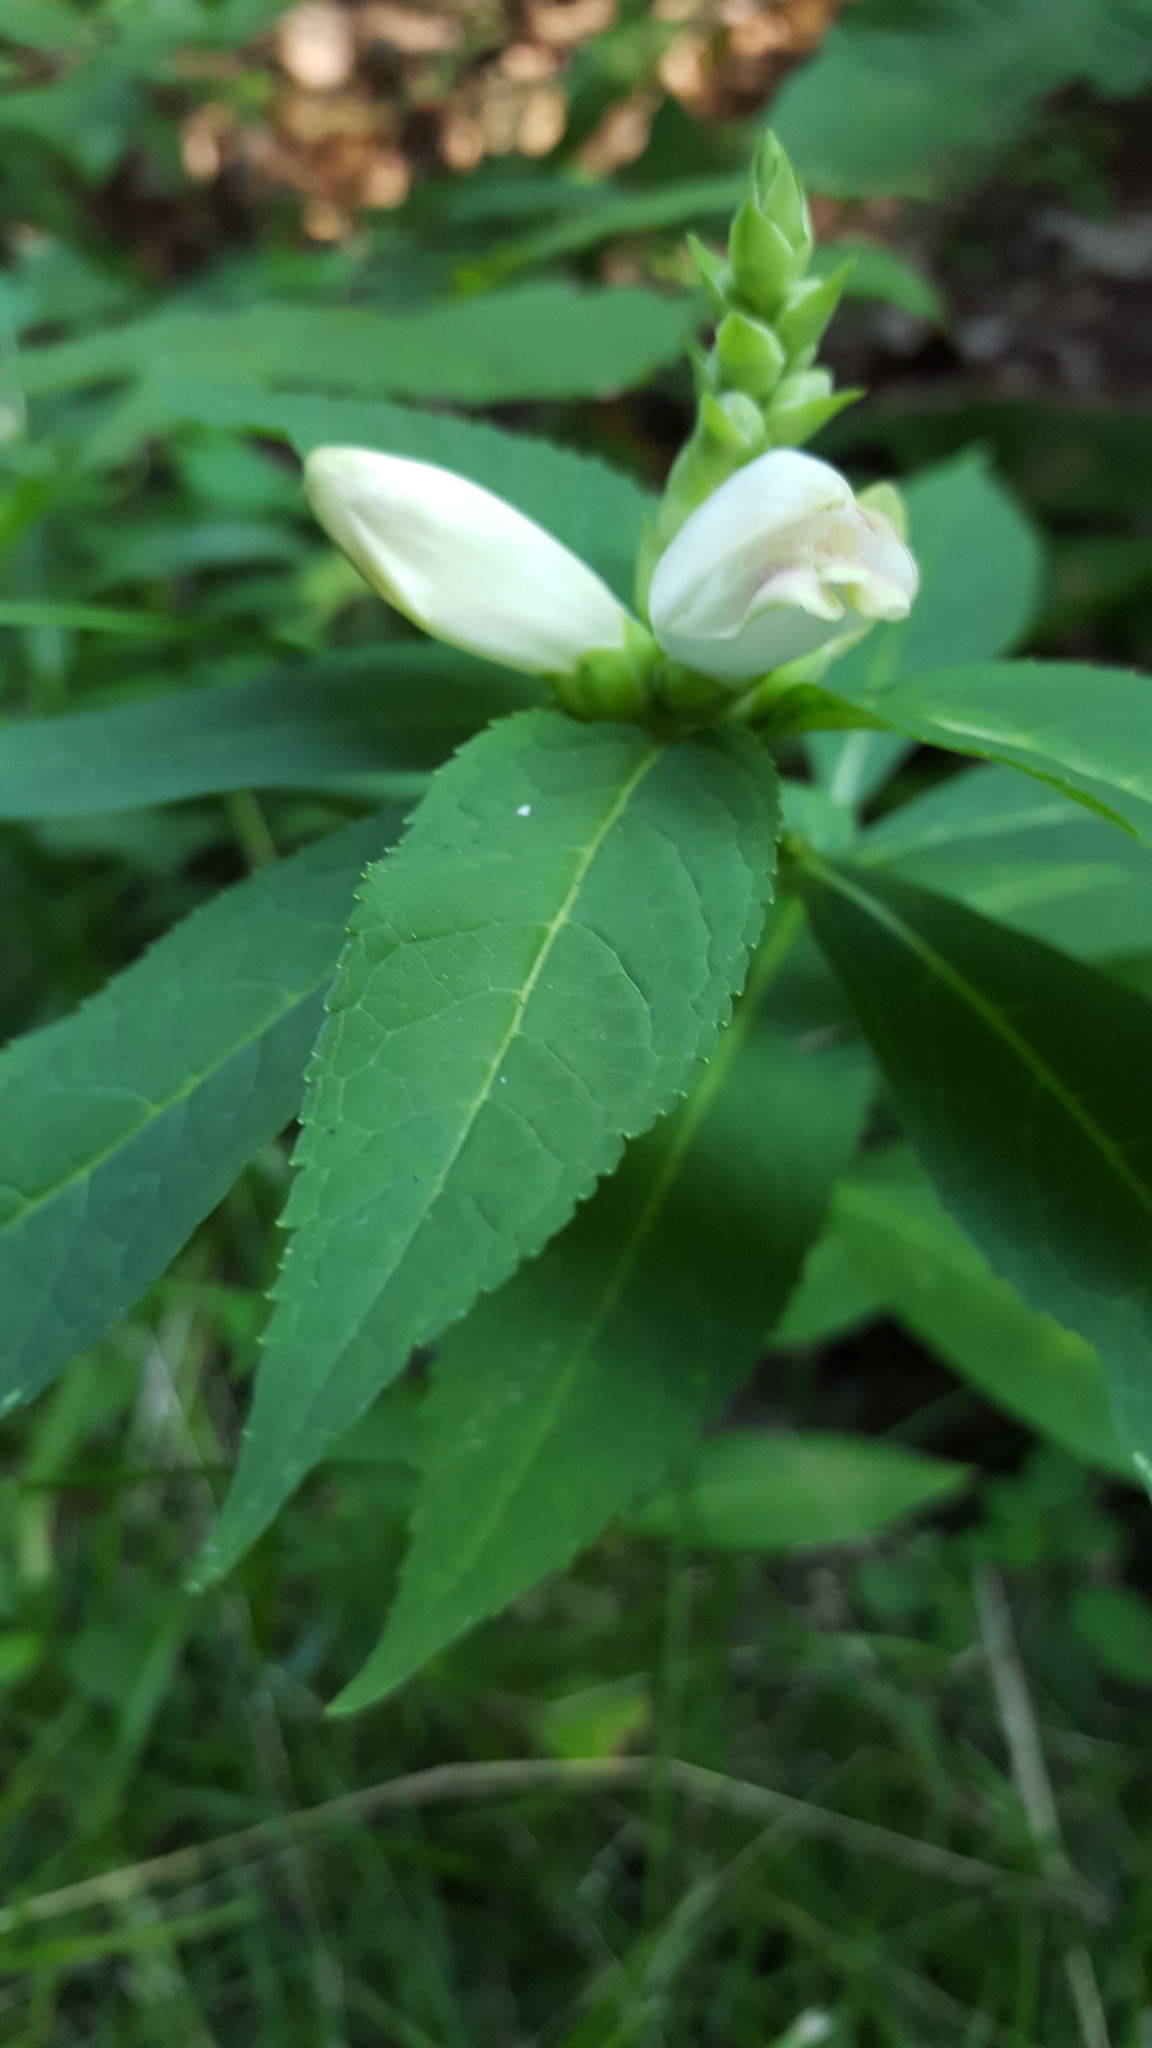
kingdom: Plantae
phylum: Tracheophyta
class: Magnoliopsida
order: Lamiales
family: Plantaginaceae
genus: Chelone
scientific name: Chelone glabra
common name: Snakehead
